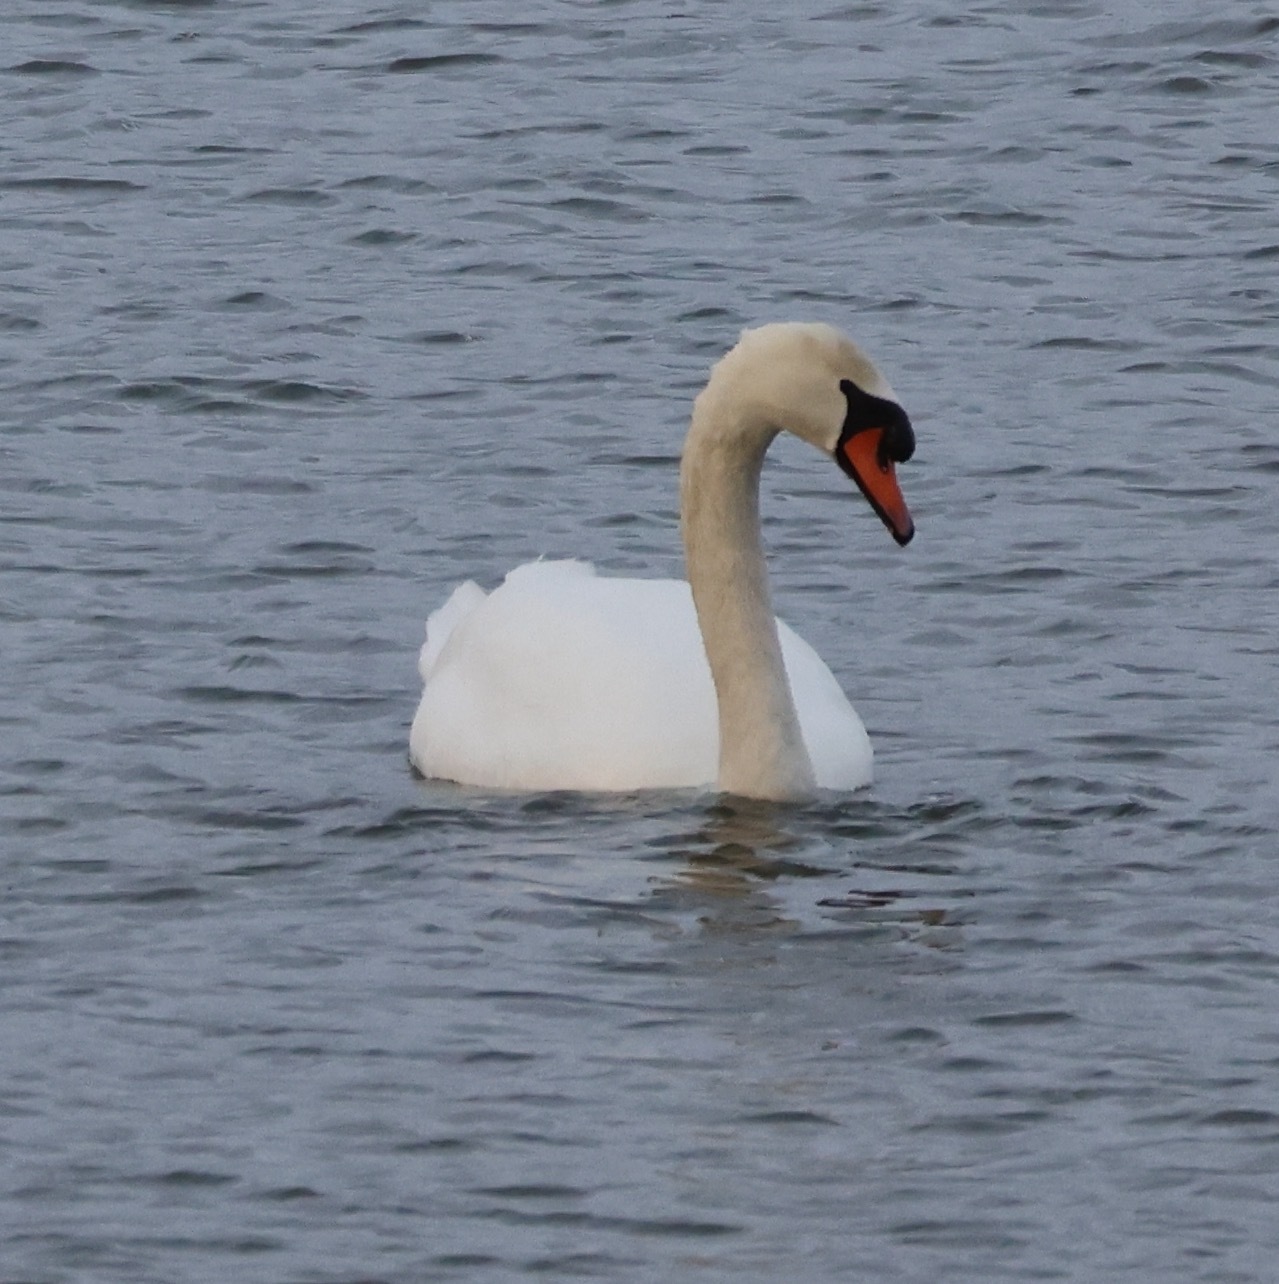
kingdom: Animalia
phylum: Chordata
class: Aves
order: Anseriformes
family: Anatidae
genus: Cygnus
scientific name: Cygnus olor
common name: Mute swan
